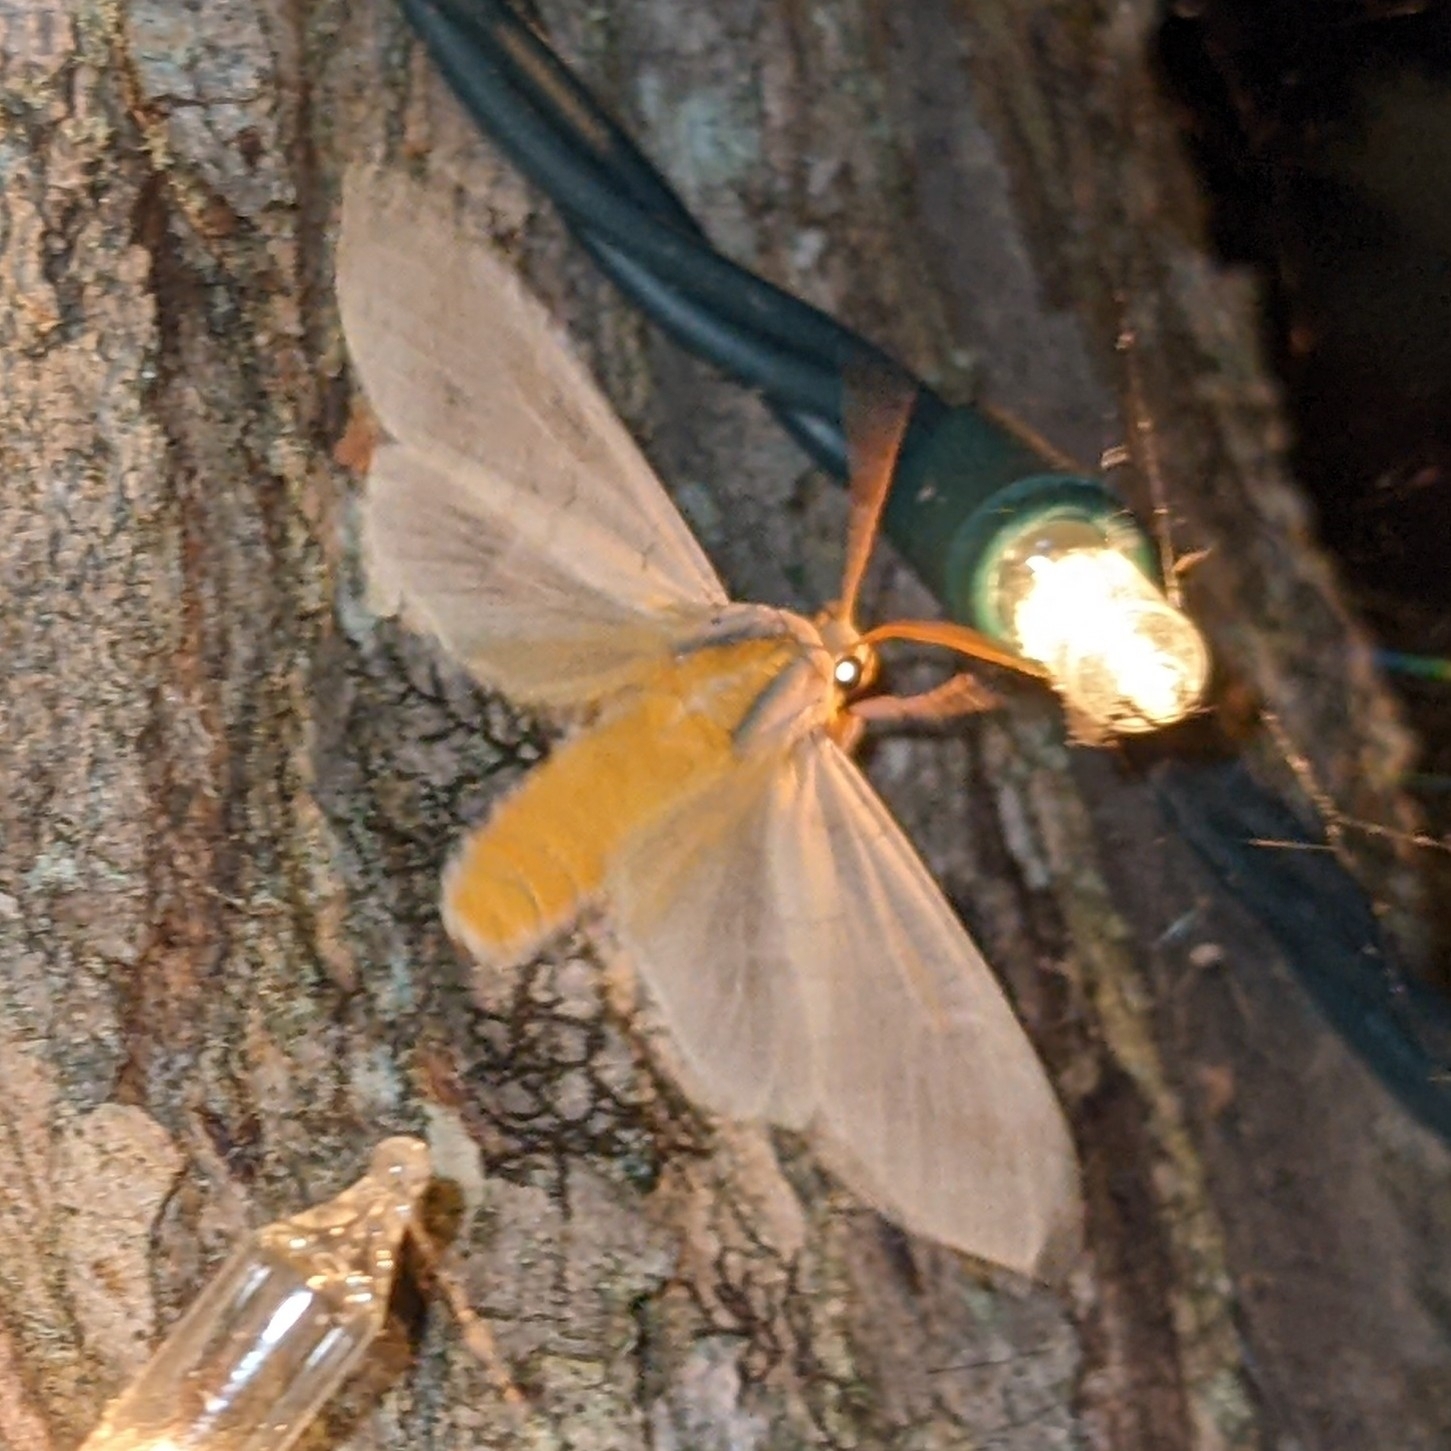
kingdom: Animalia
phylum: Arthropoda
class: Insecta
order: Lepidoptera
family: Erebidae
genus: Halysidota
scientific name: Halysidota
